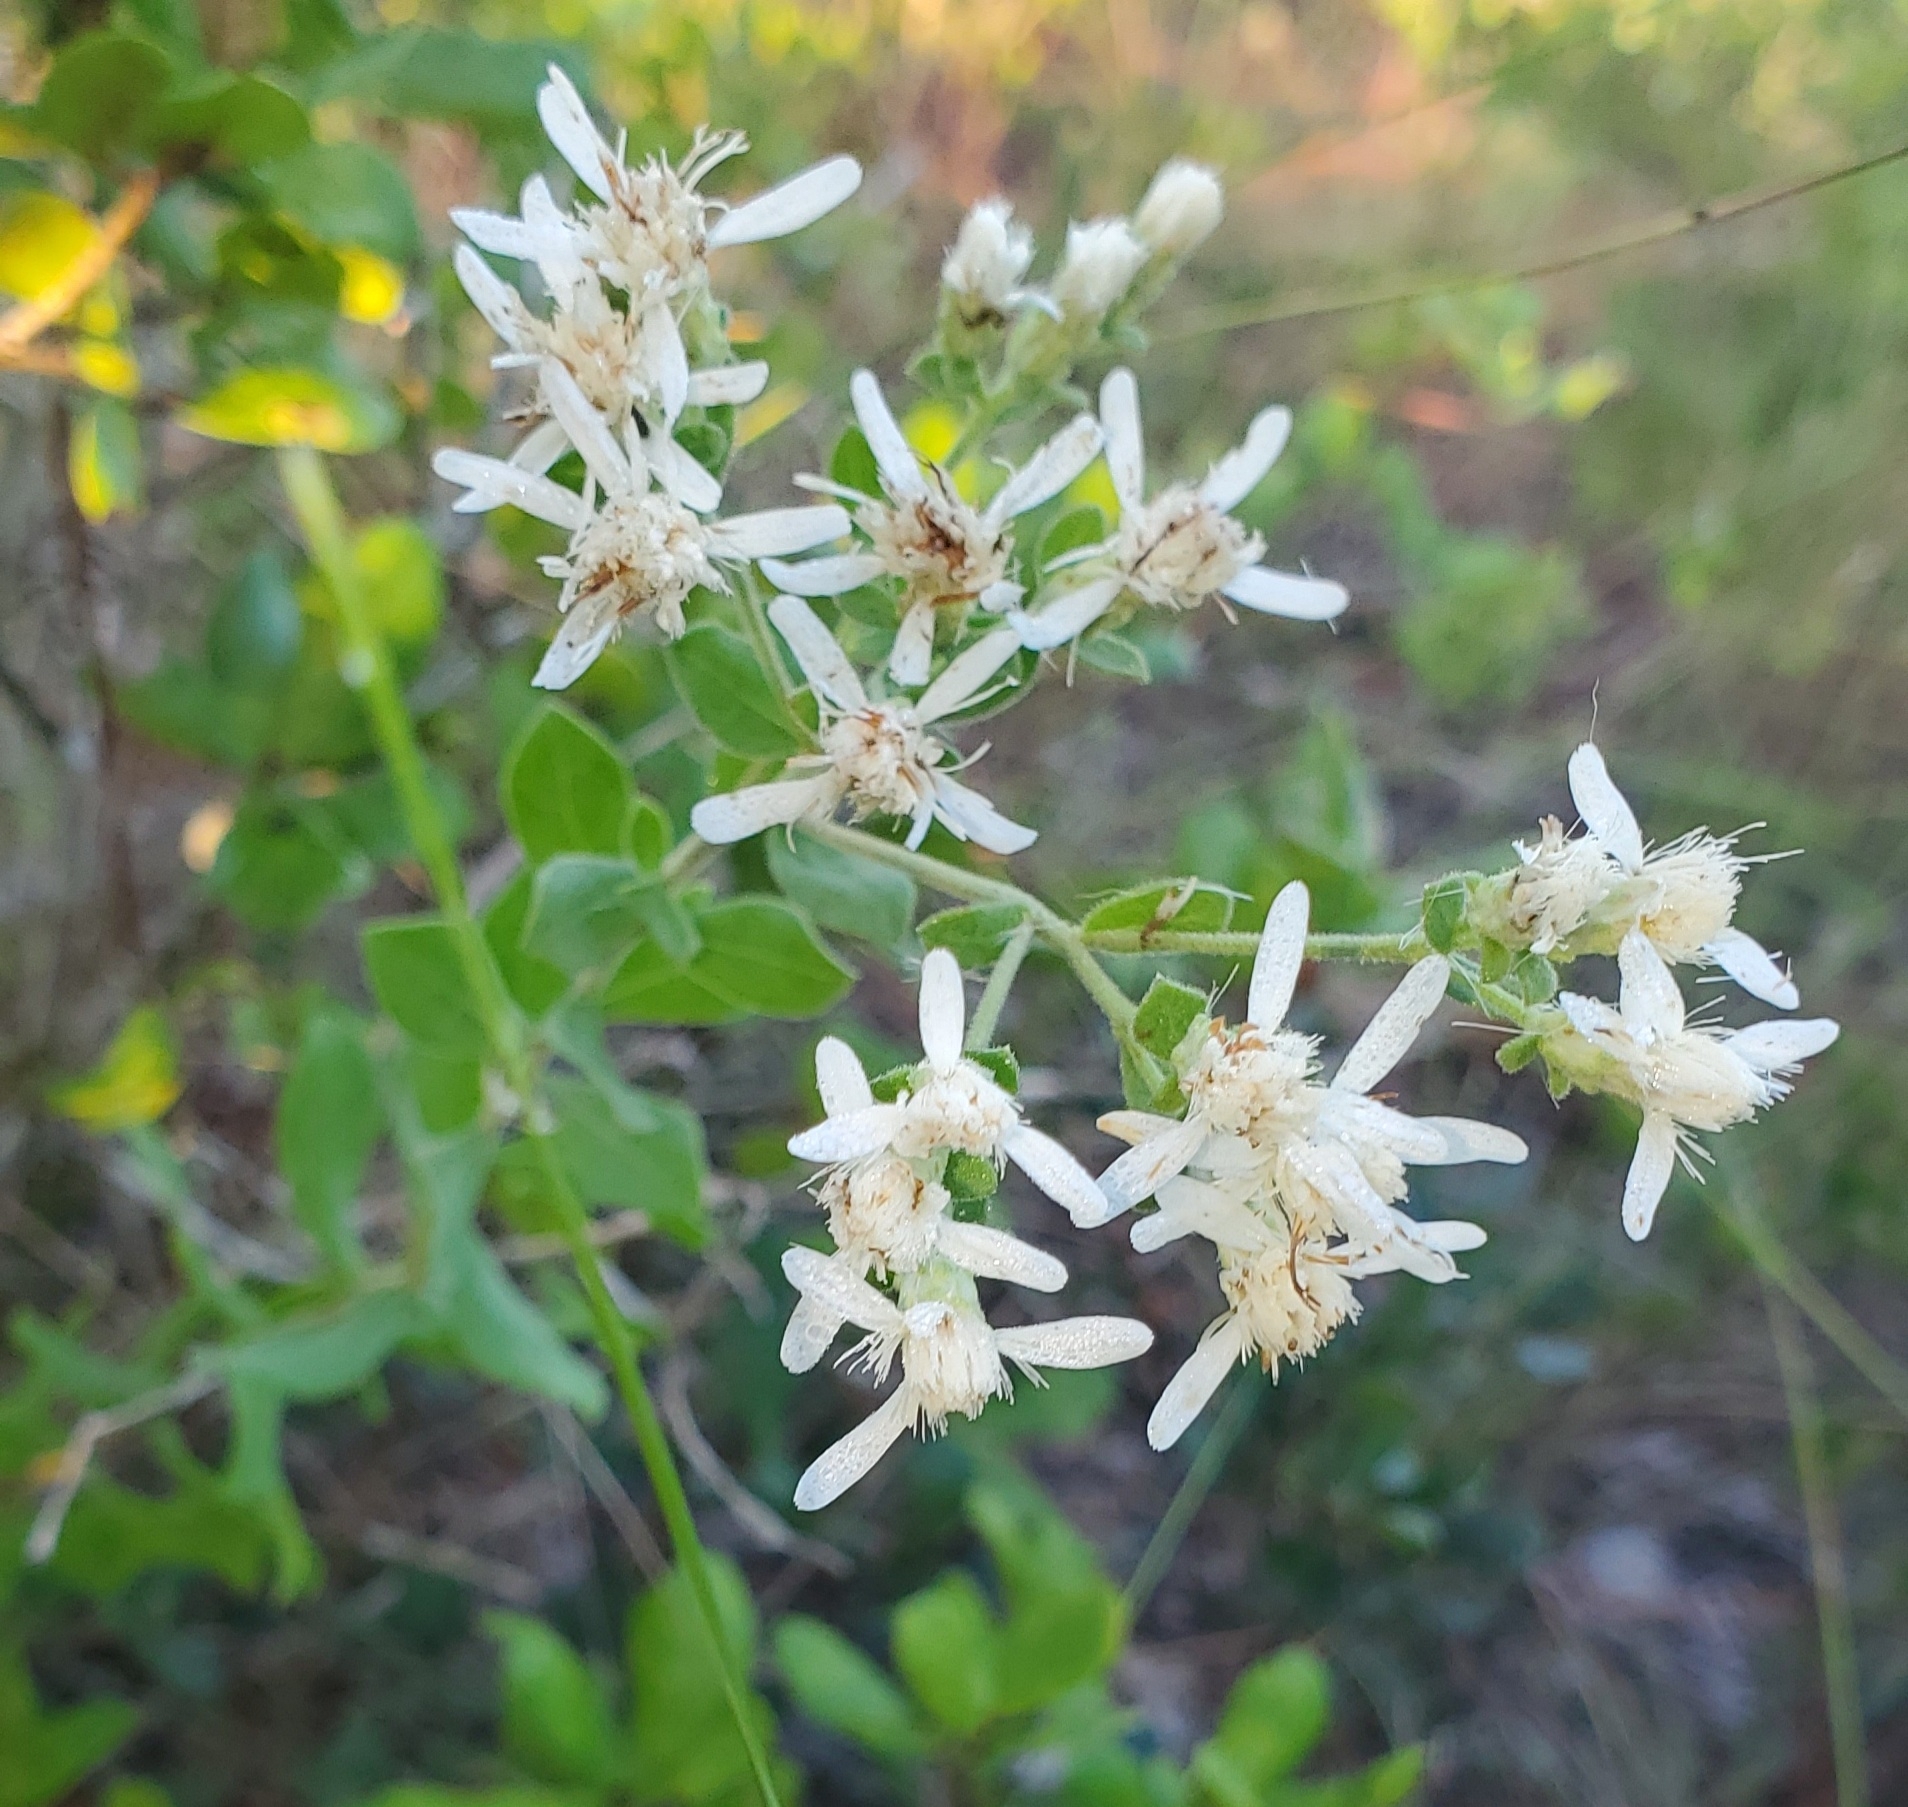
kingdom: Plantae
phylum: Tracheophyta
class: Magnoliopsida
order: Asterales
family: Asteraceae
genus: Sericocarpus
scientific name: Sericocarpus tortifolius
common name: Dixie aster
